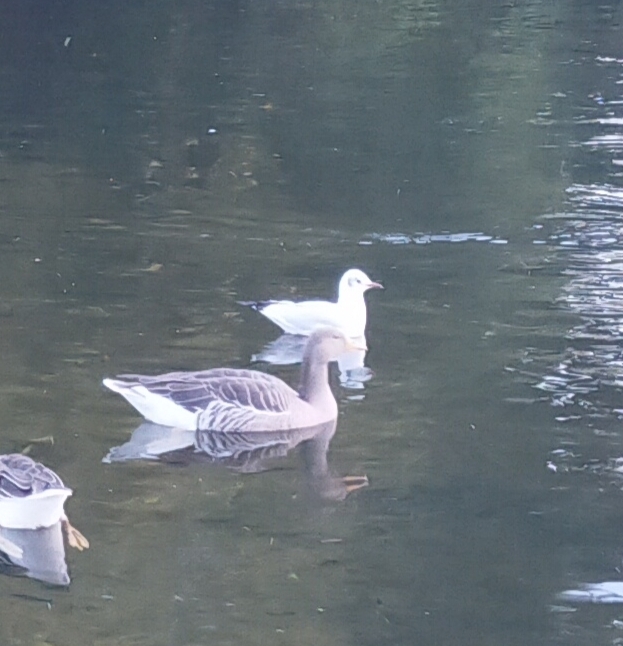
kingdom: Animalia
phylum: Chordata
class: Aves
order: Charadriiformes
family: Laridae
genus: Chroicocephalus
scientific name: Chroicocephalus ridibundus
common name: Black-headed gull
